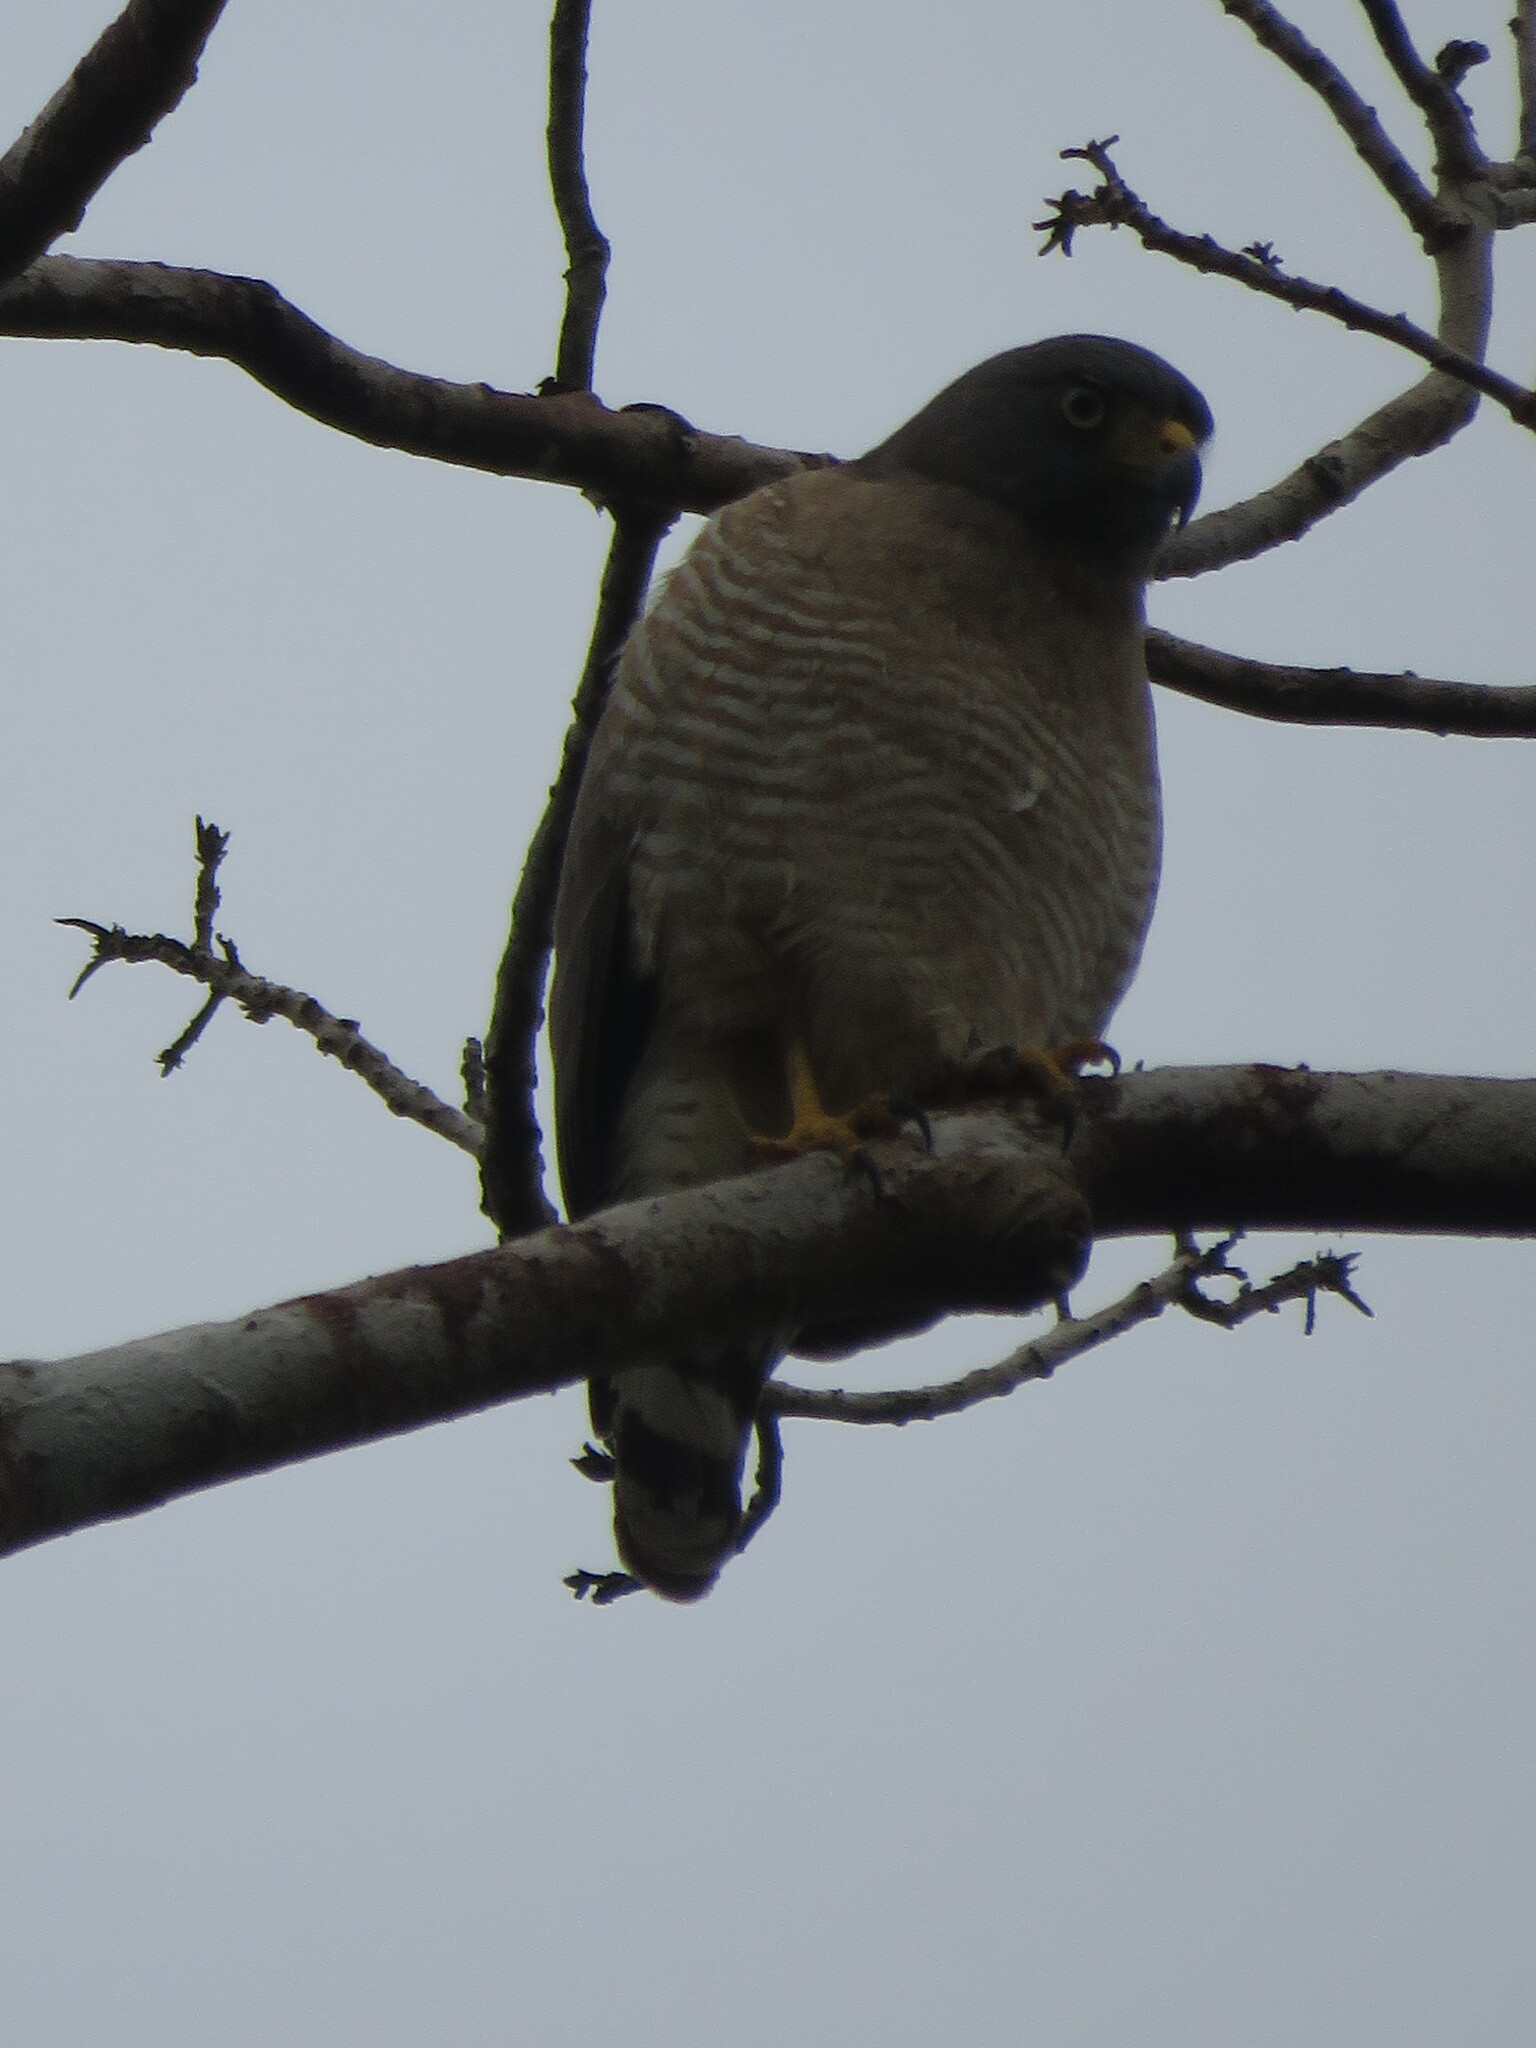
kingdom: Animalia
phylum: Chordata
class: Aves
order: Accipitriformes
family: Accipitridae
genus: Rupornis
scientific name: Rupornis magnirostris
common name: Roadside hawk
